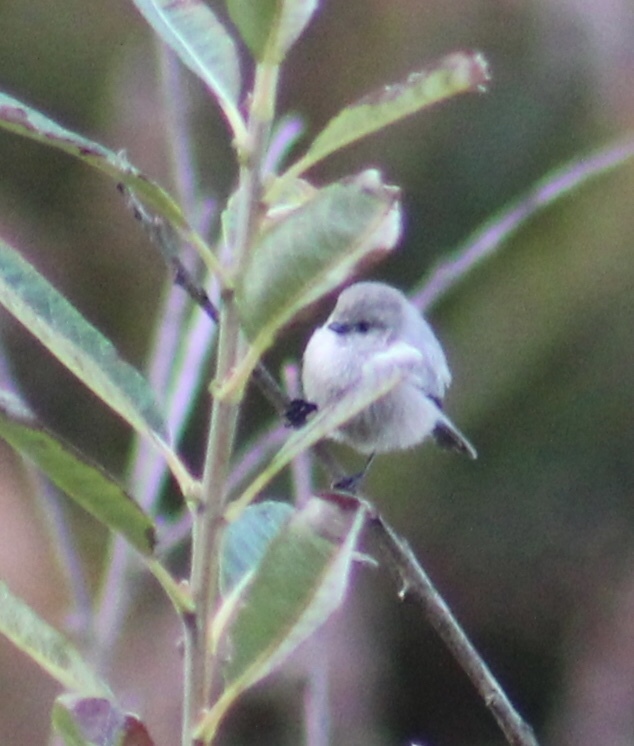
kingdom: Animalia
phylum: Chordata
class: Aves
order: Passeriformes
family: Aegithalidae
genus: Psaltriparus
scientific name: Psaltriparus minimus
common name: American bushtit
